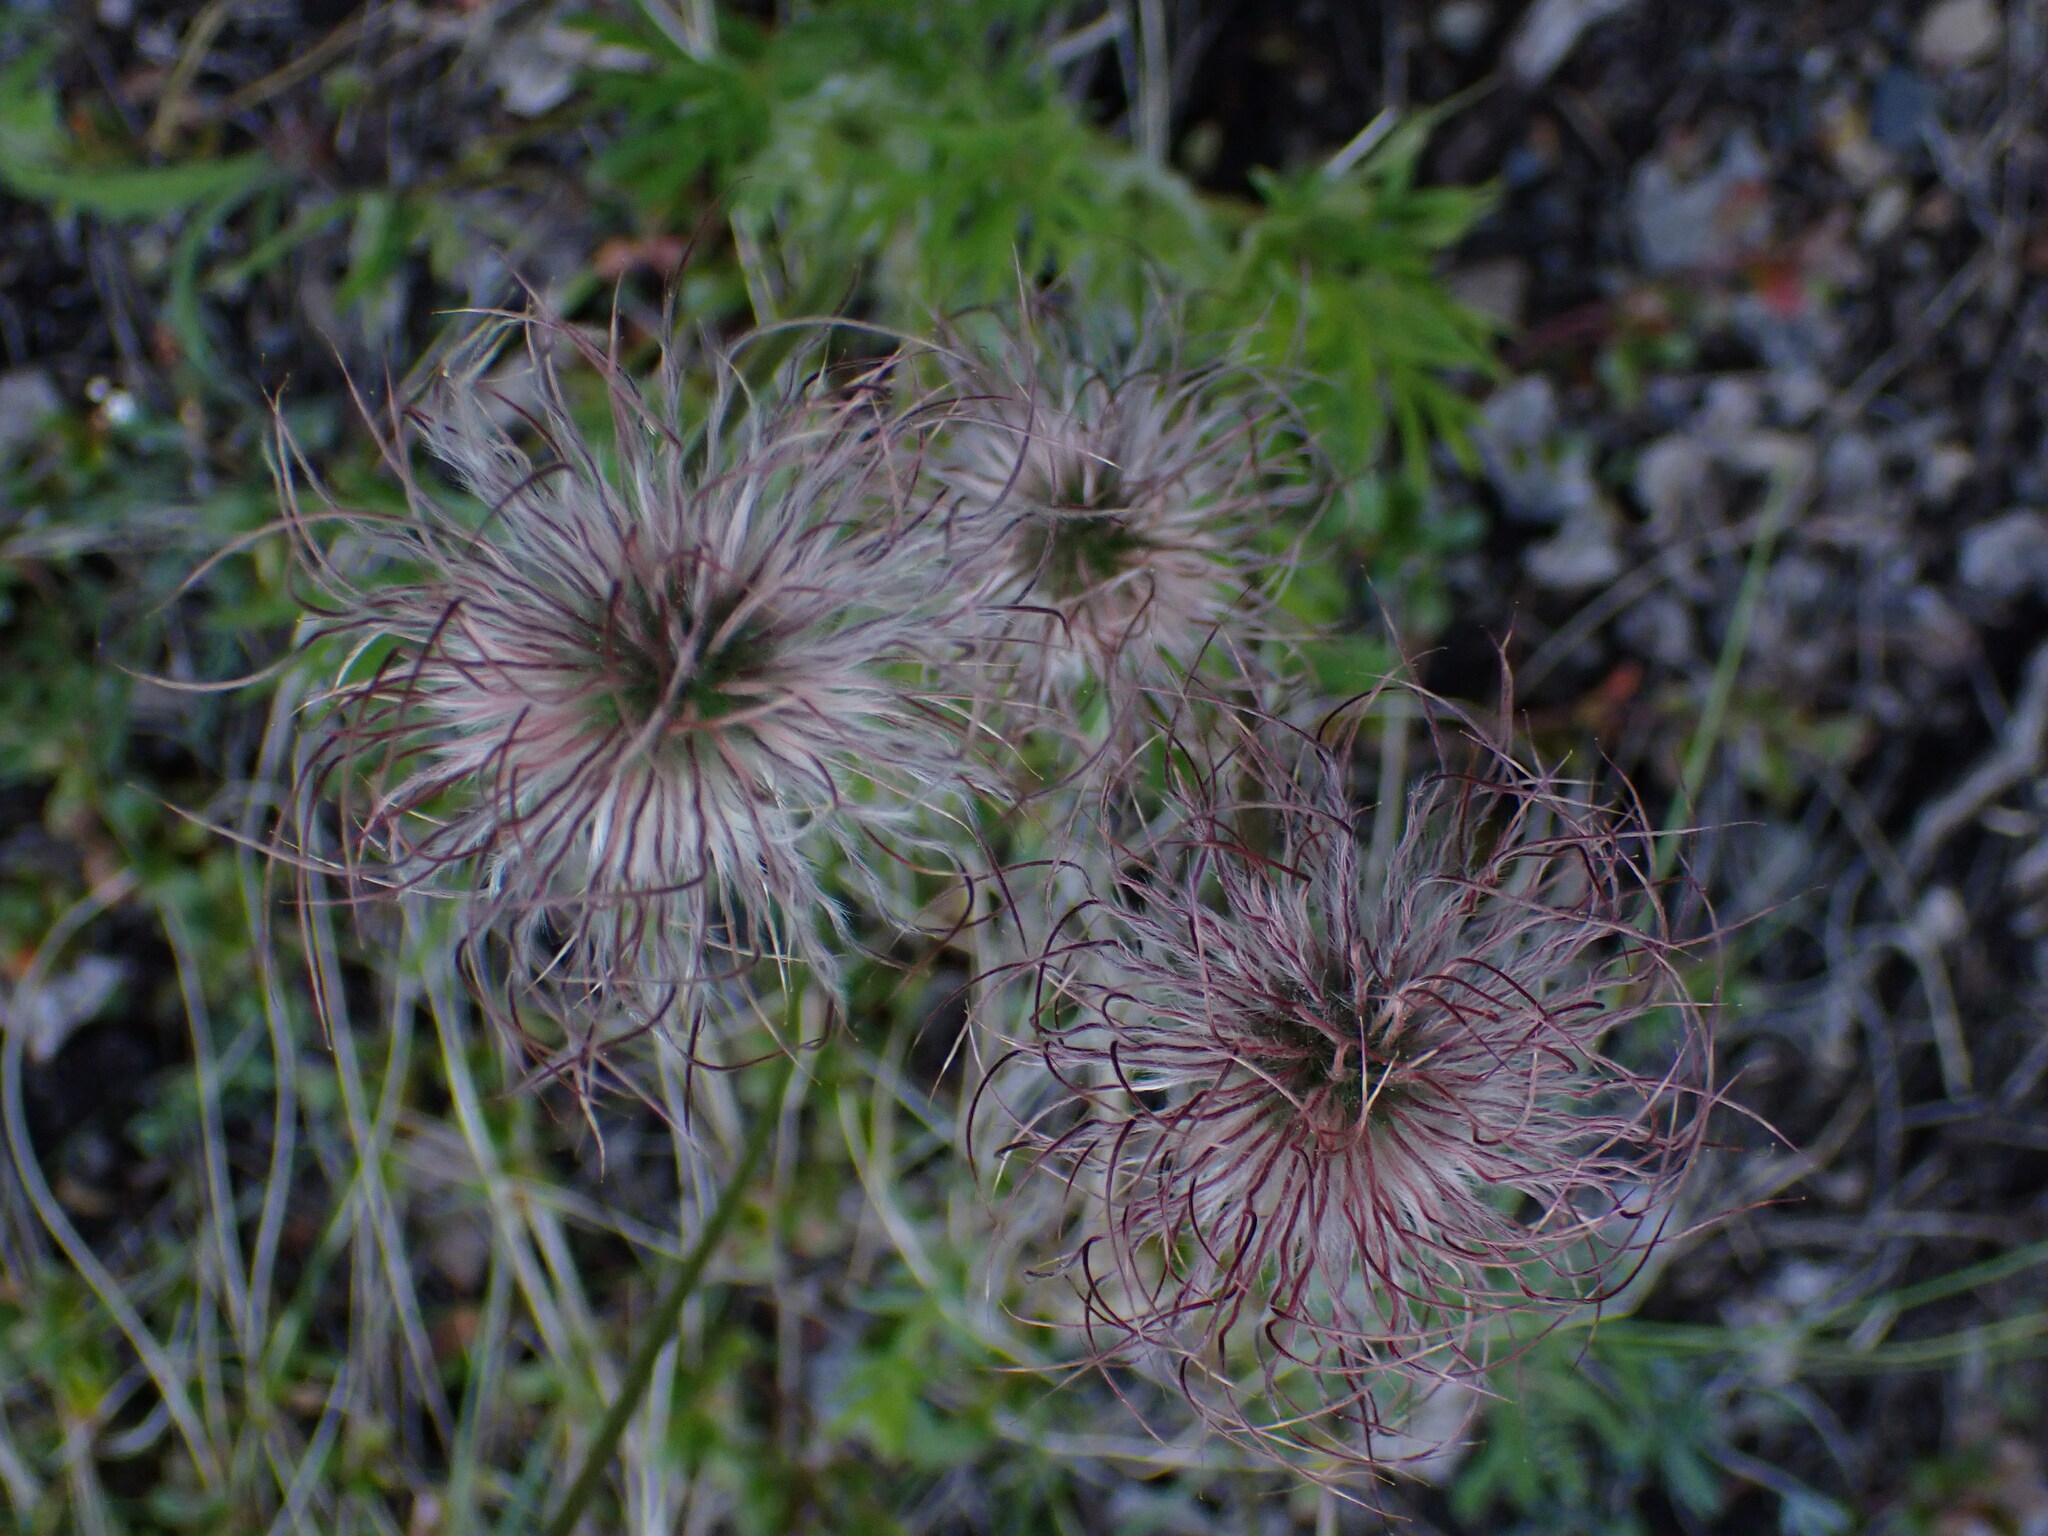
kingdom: Plantae
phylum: Tracheophyta
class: Magnoliopsida
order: Ranunculales
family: Ranunculaceae
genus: Pulsatilla
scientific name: Pulsatilla nuttalliana
